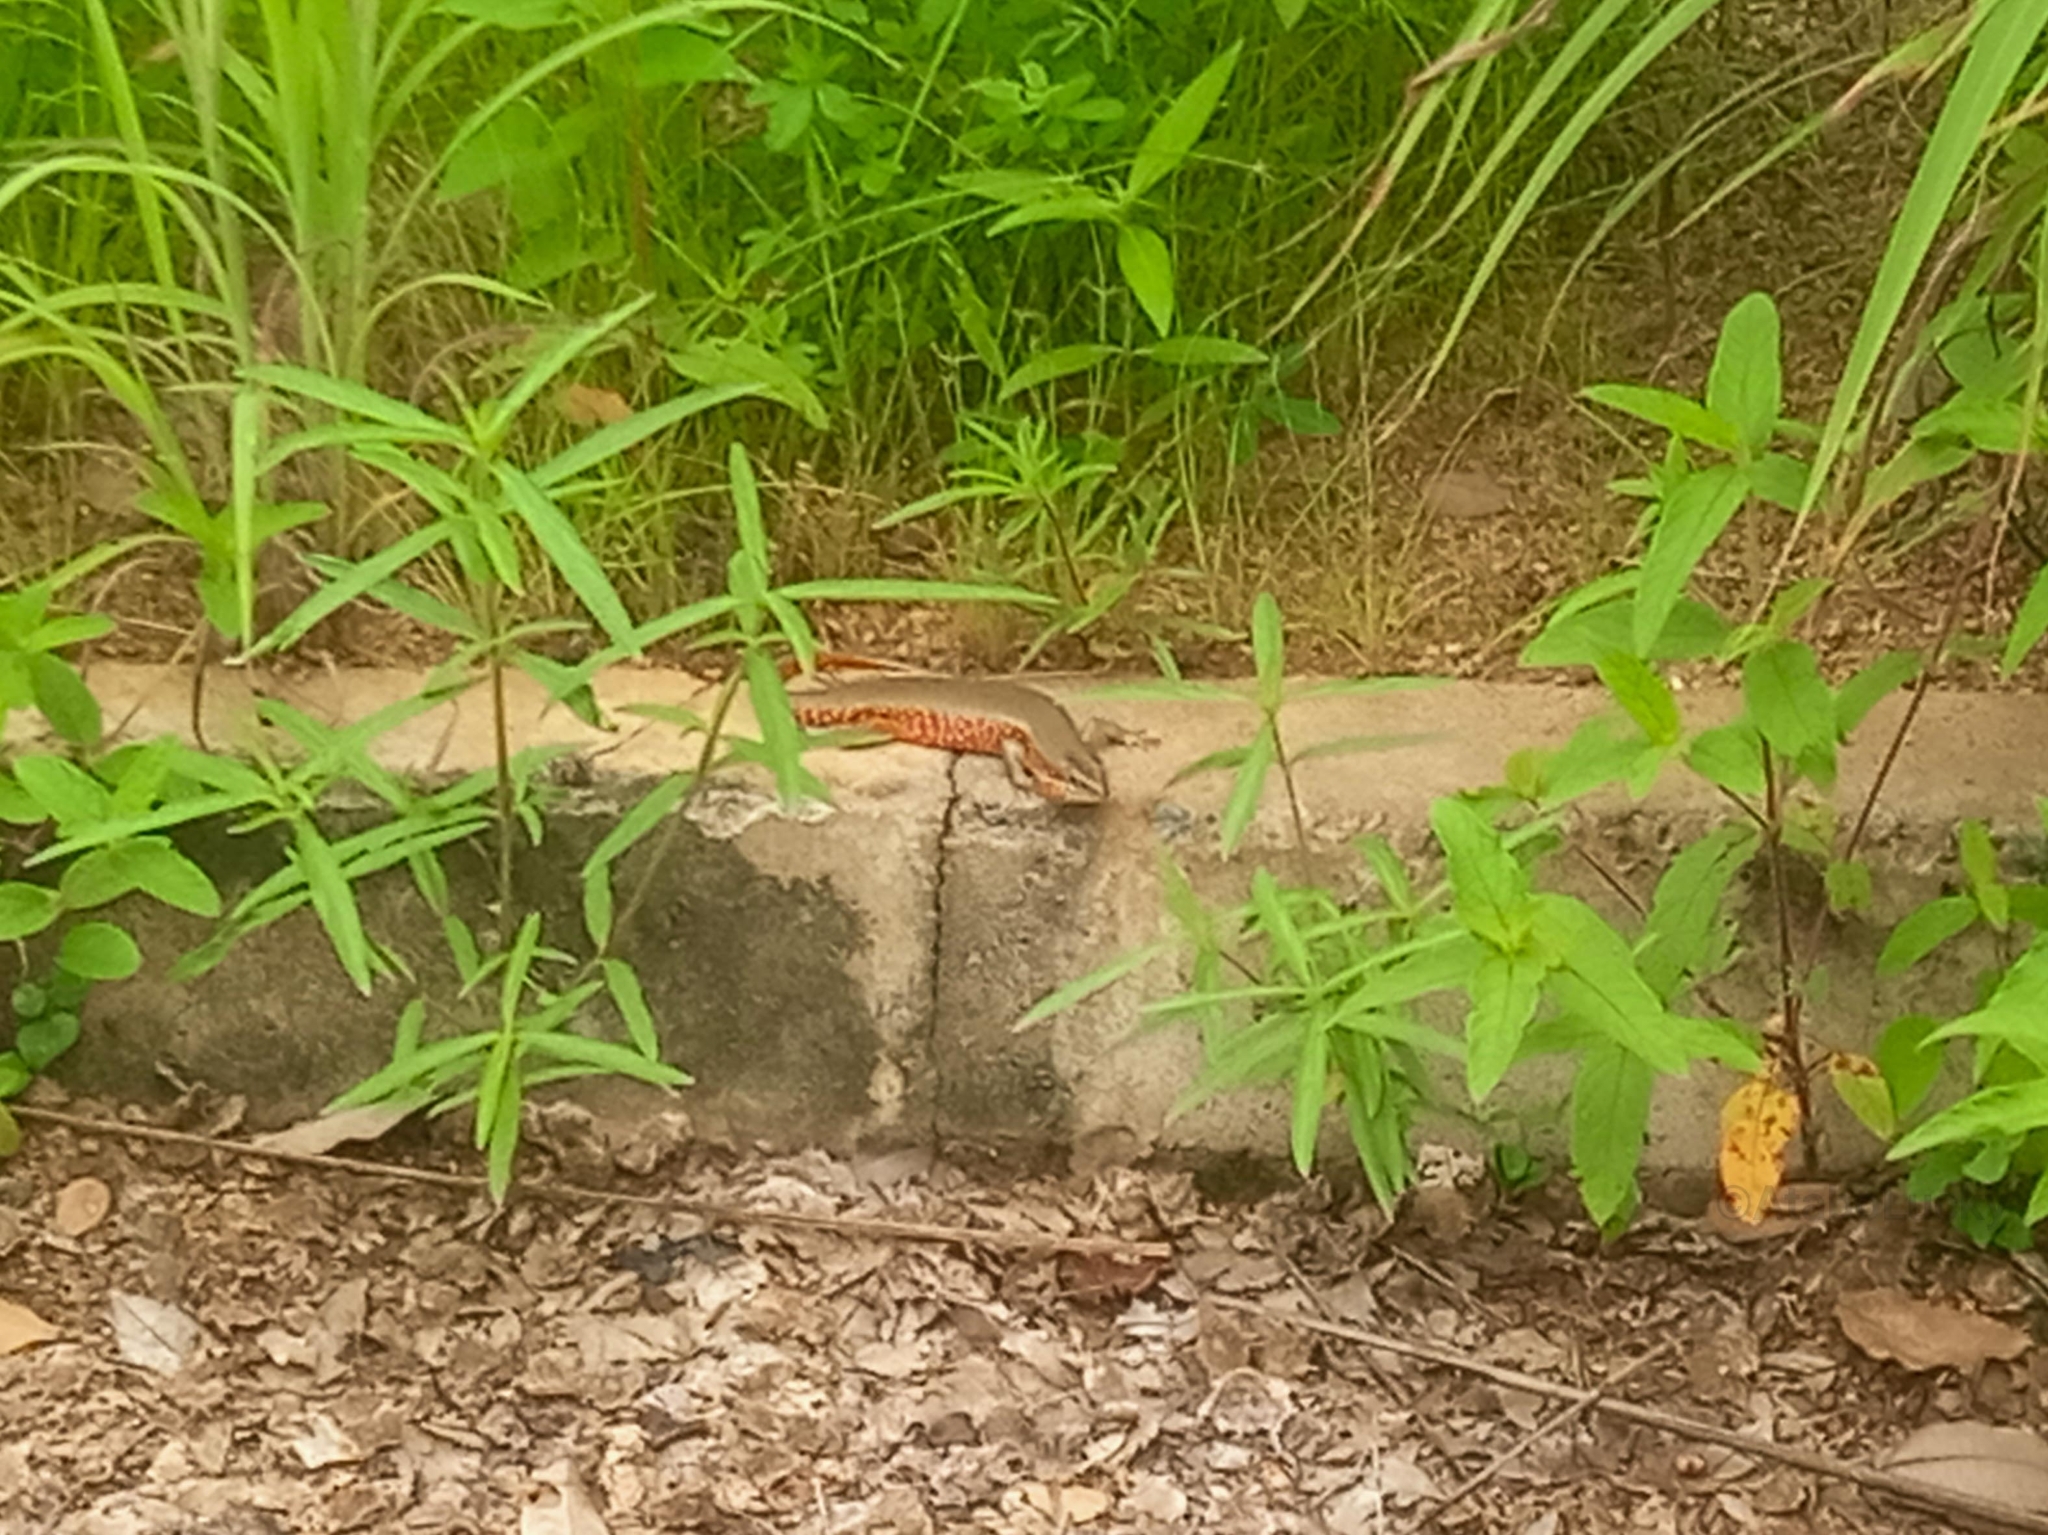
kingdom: Animalia
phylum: Chordata
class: Squamata
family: Scincidae
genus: Trachylepis
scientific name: Trachylepis perrotetii
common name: Teita mabuya
